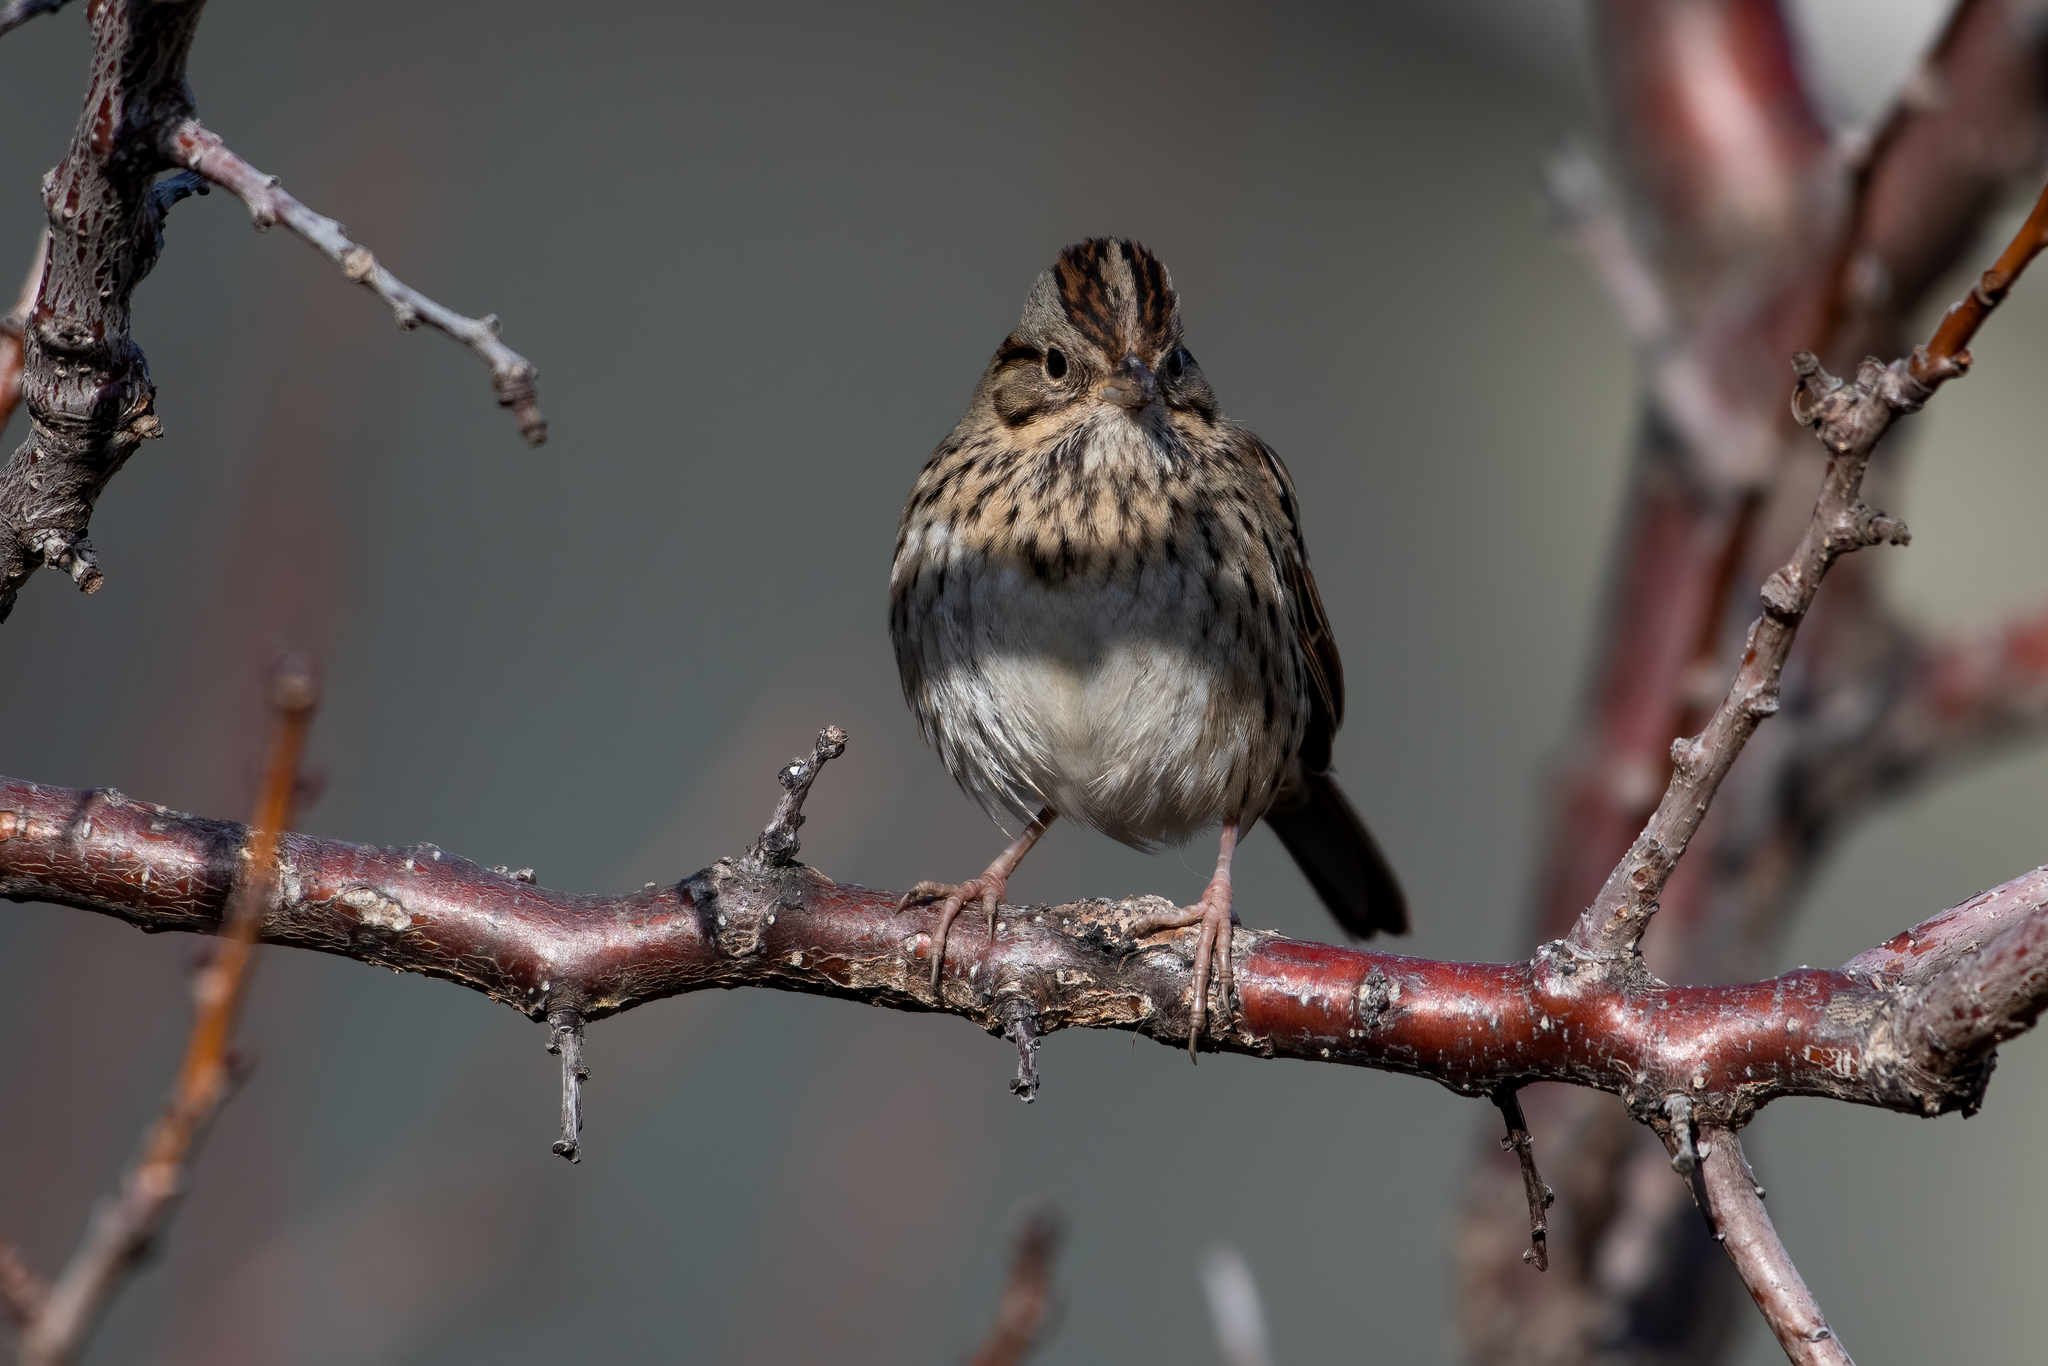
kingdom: Animalia
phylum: Chordata
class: Aves
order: Passeriformes
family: Passerellidae
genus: Melospiza
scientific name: Melospiza lincolnii
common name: Lincoln's sparrow
